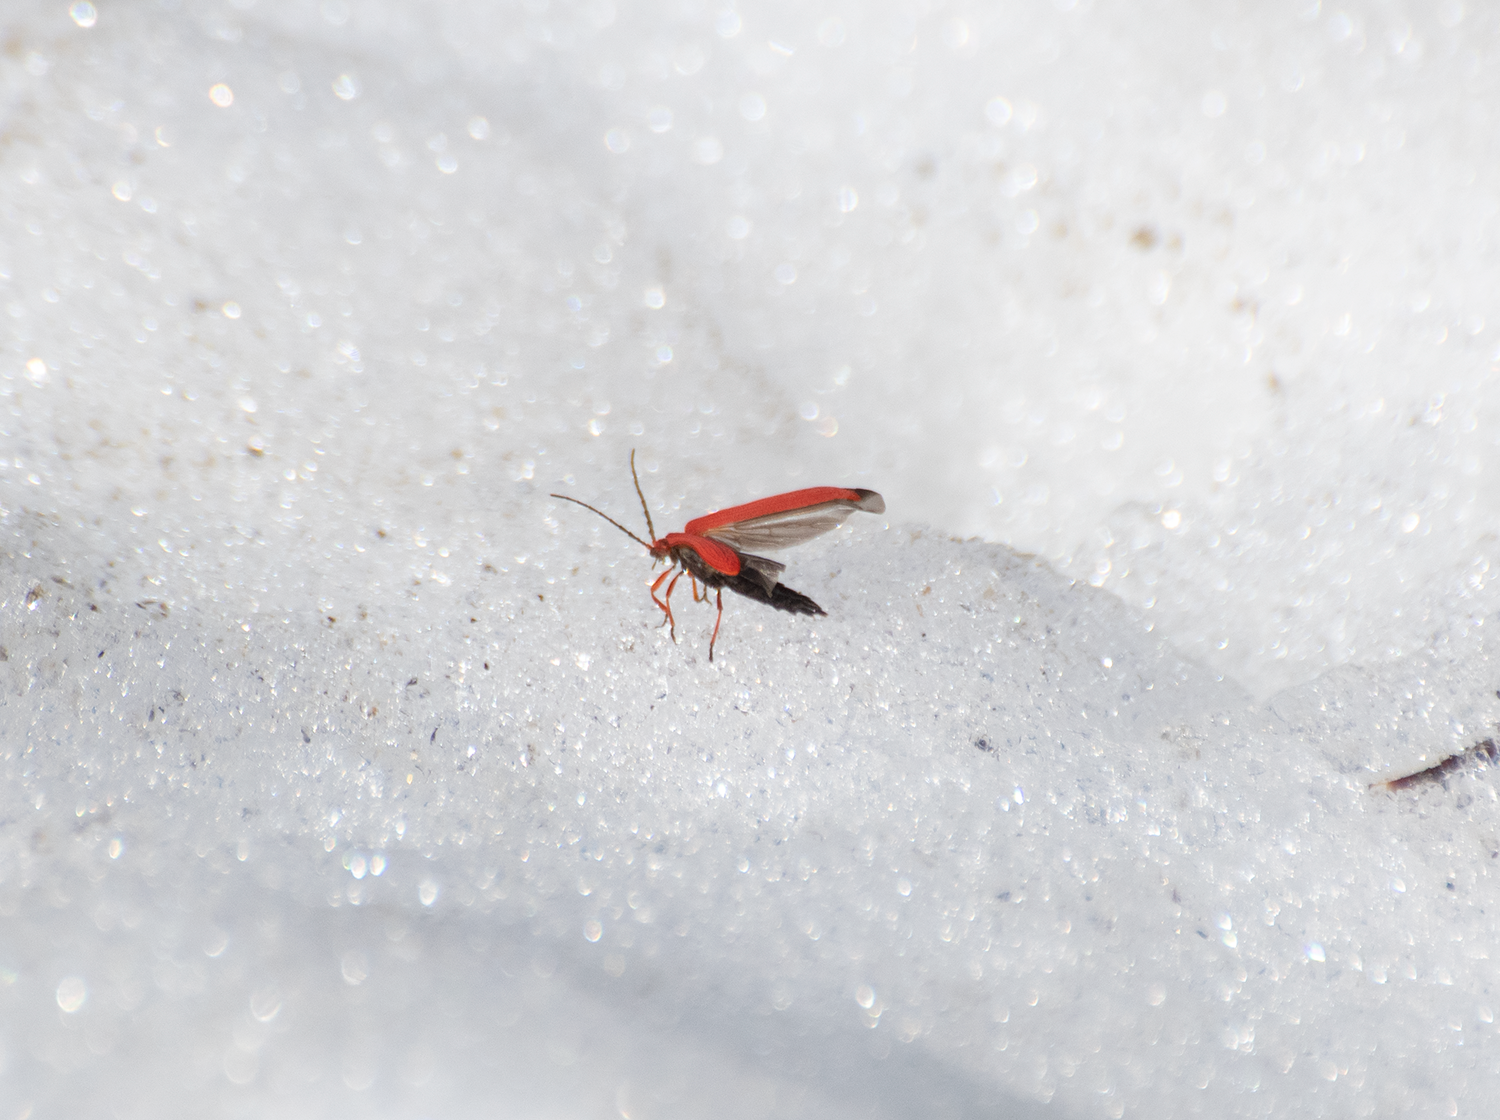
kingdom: Animalia
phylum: Arthropoda
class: Insecta
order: Coleoptera
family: Lycidae
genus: Dictyoptera
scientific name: Dictyoptera simplicipes
